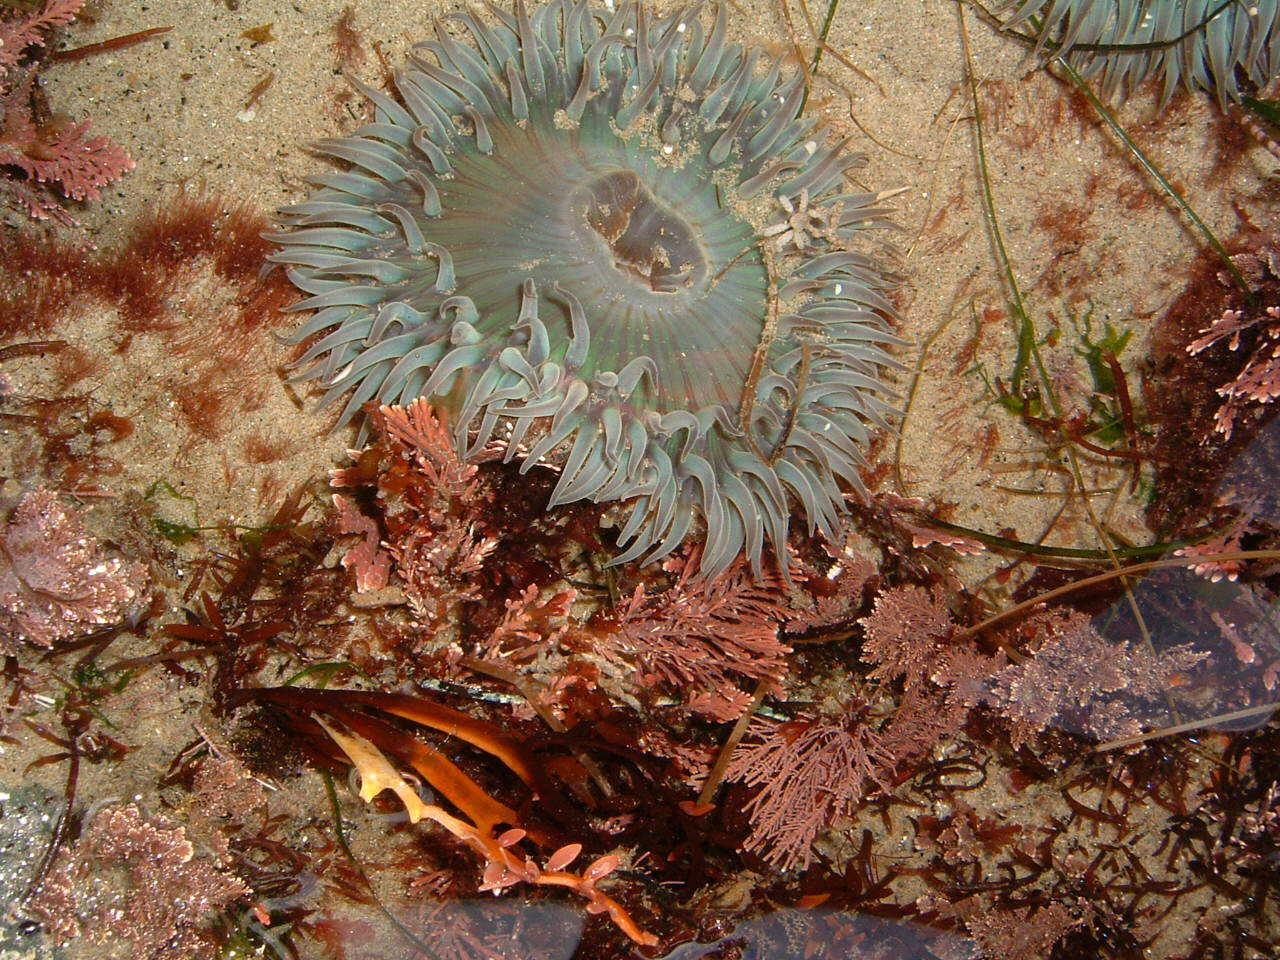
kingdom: Animalia
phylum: Cnidaria
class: Anthozoa
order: Actiniaria
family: Actiniidae
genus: Anthopleura
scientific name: Anthopleura sola
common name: Sun anemone
